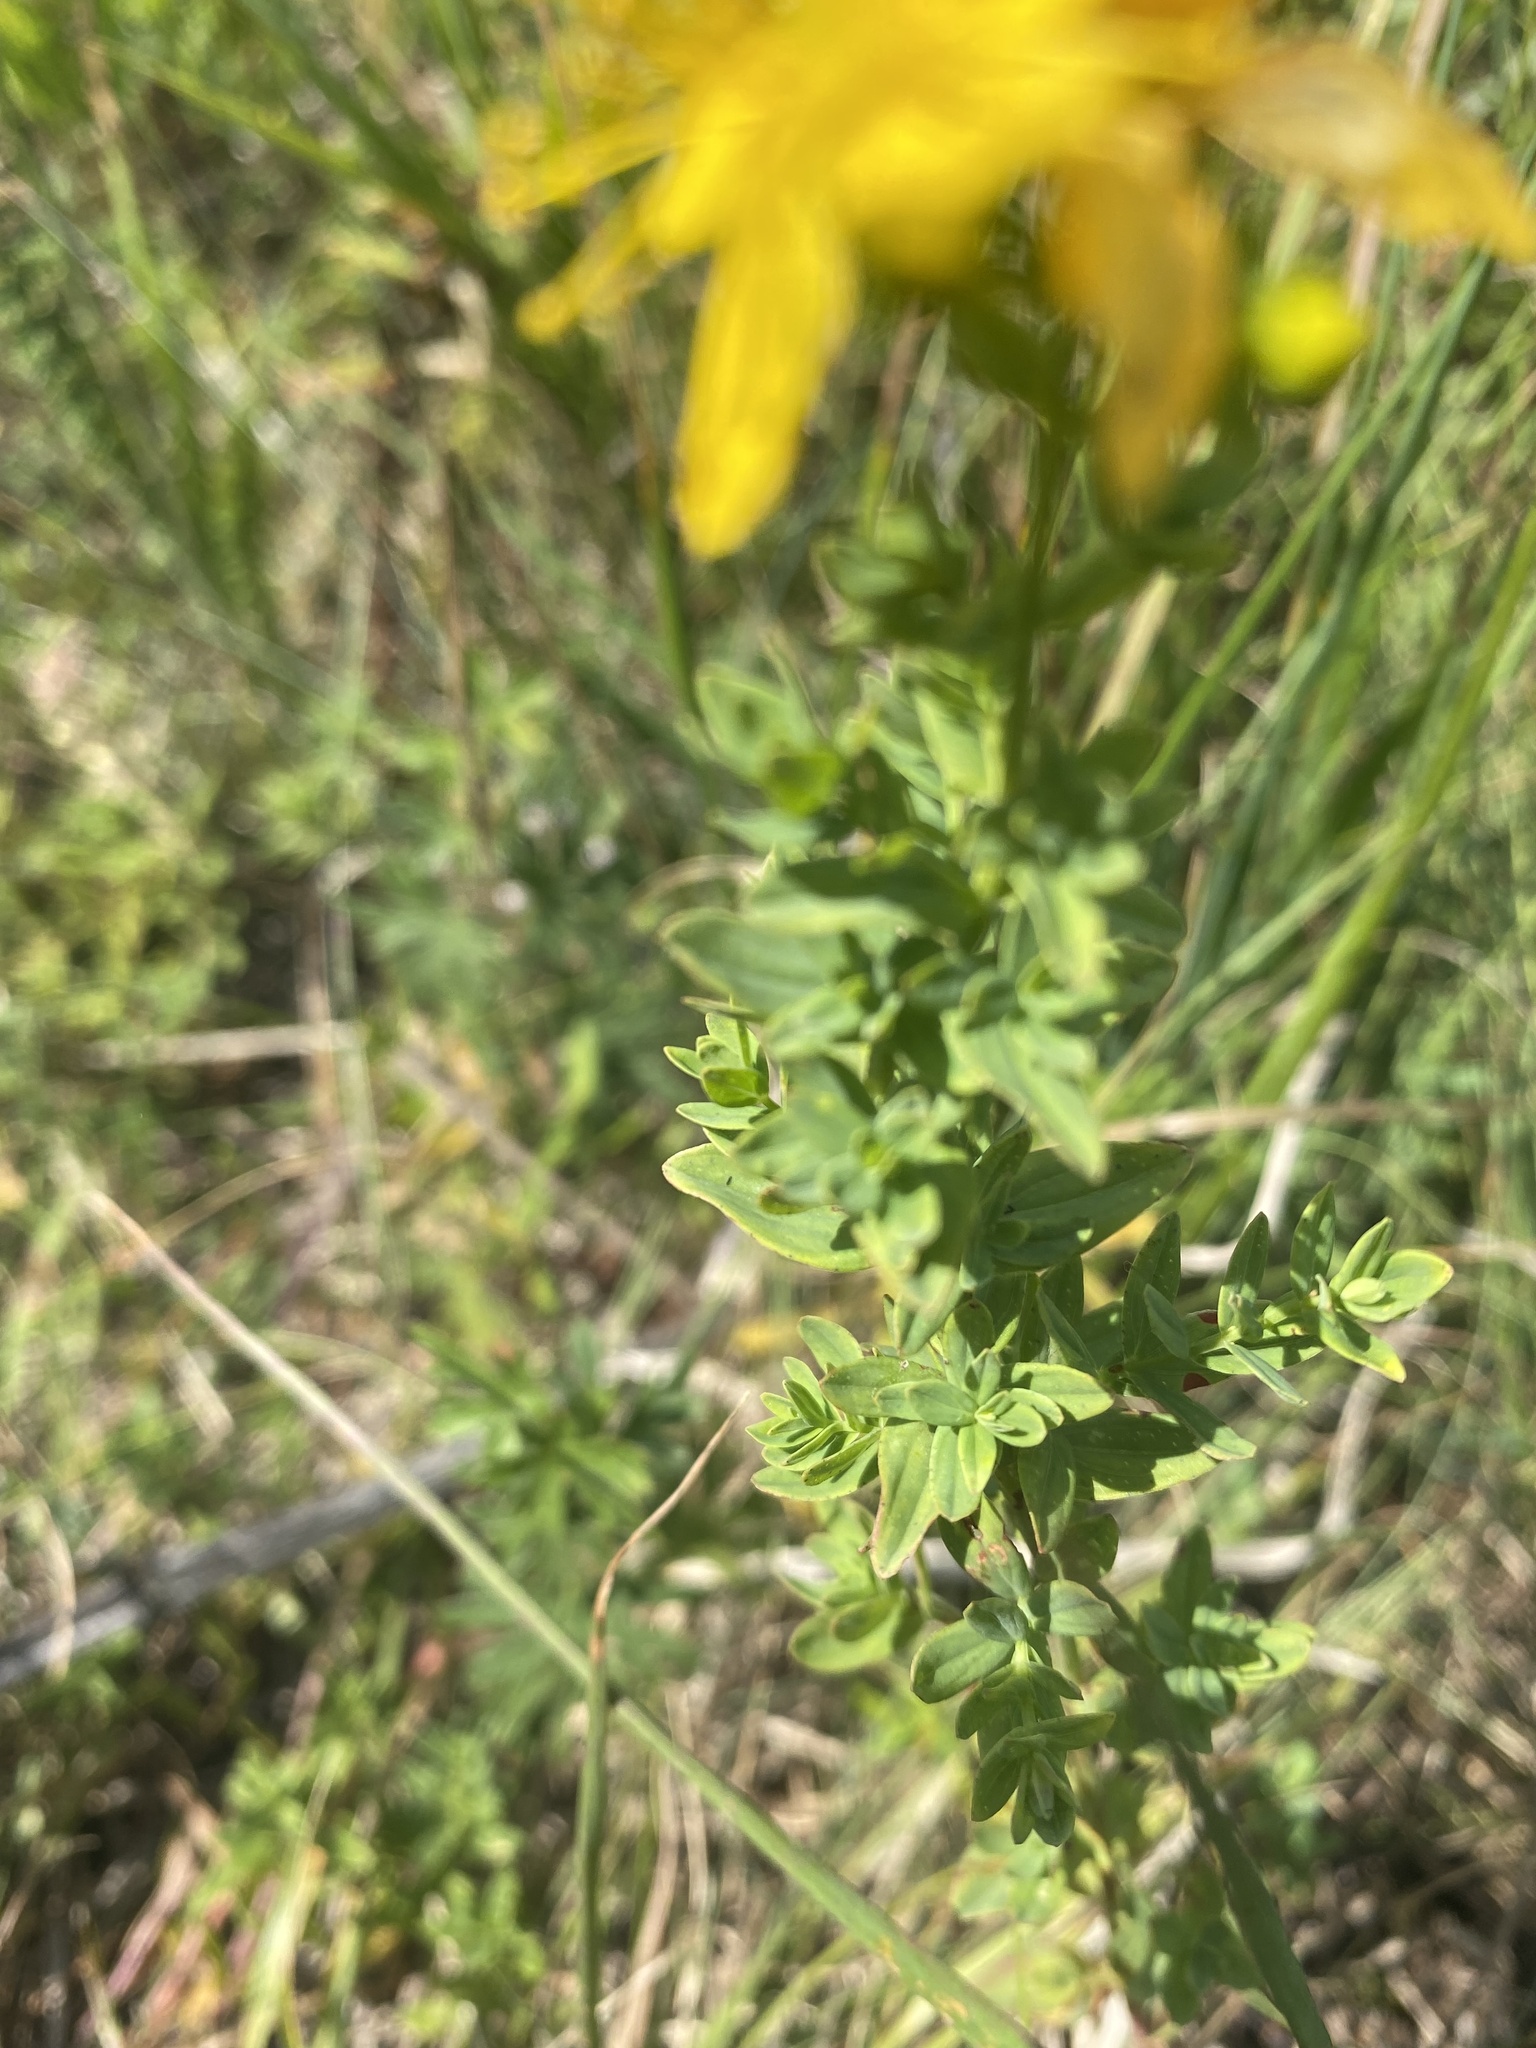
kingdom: Plantae
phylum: Tracheophyta
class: Magnoliopsida
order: Malpighiales
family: Hypericaceae
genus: Hypericum
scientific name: Hypericum perforatum
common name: Common st. johnswort
